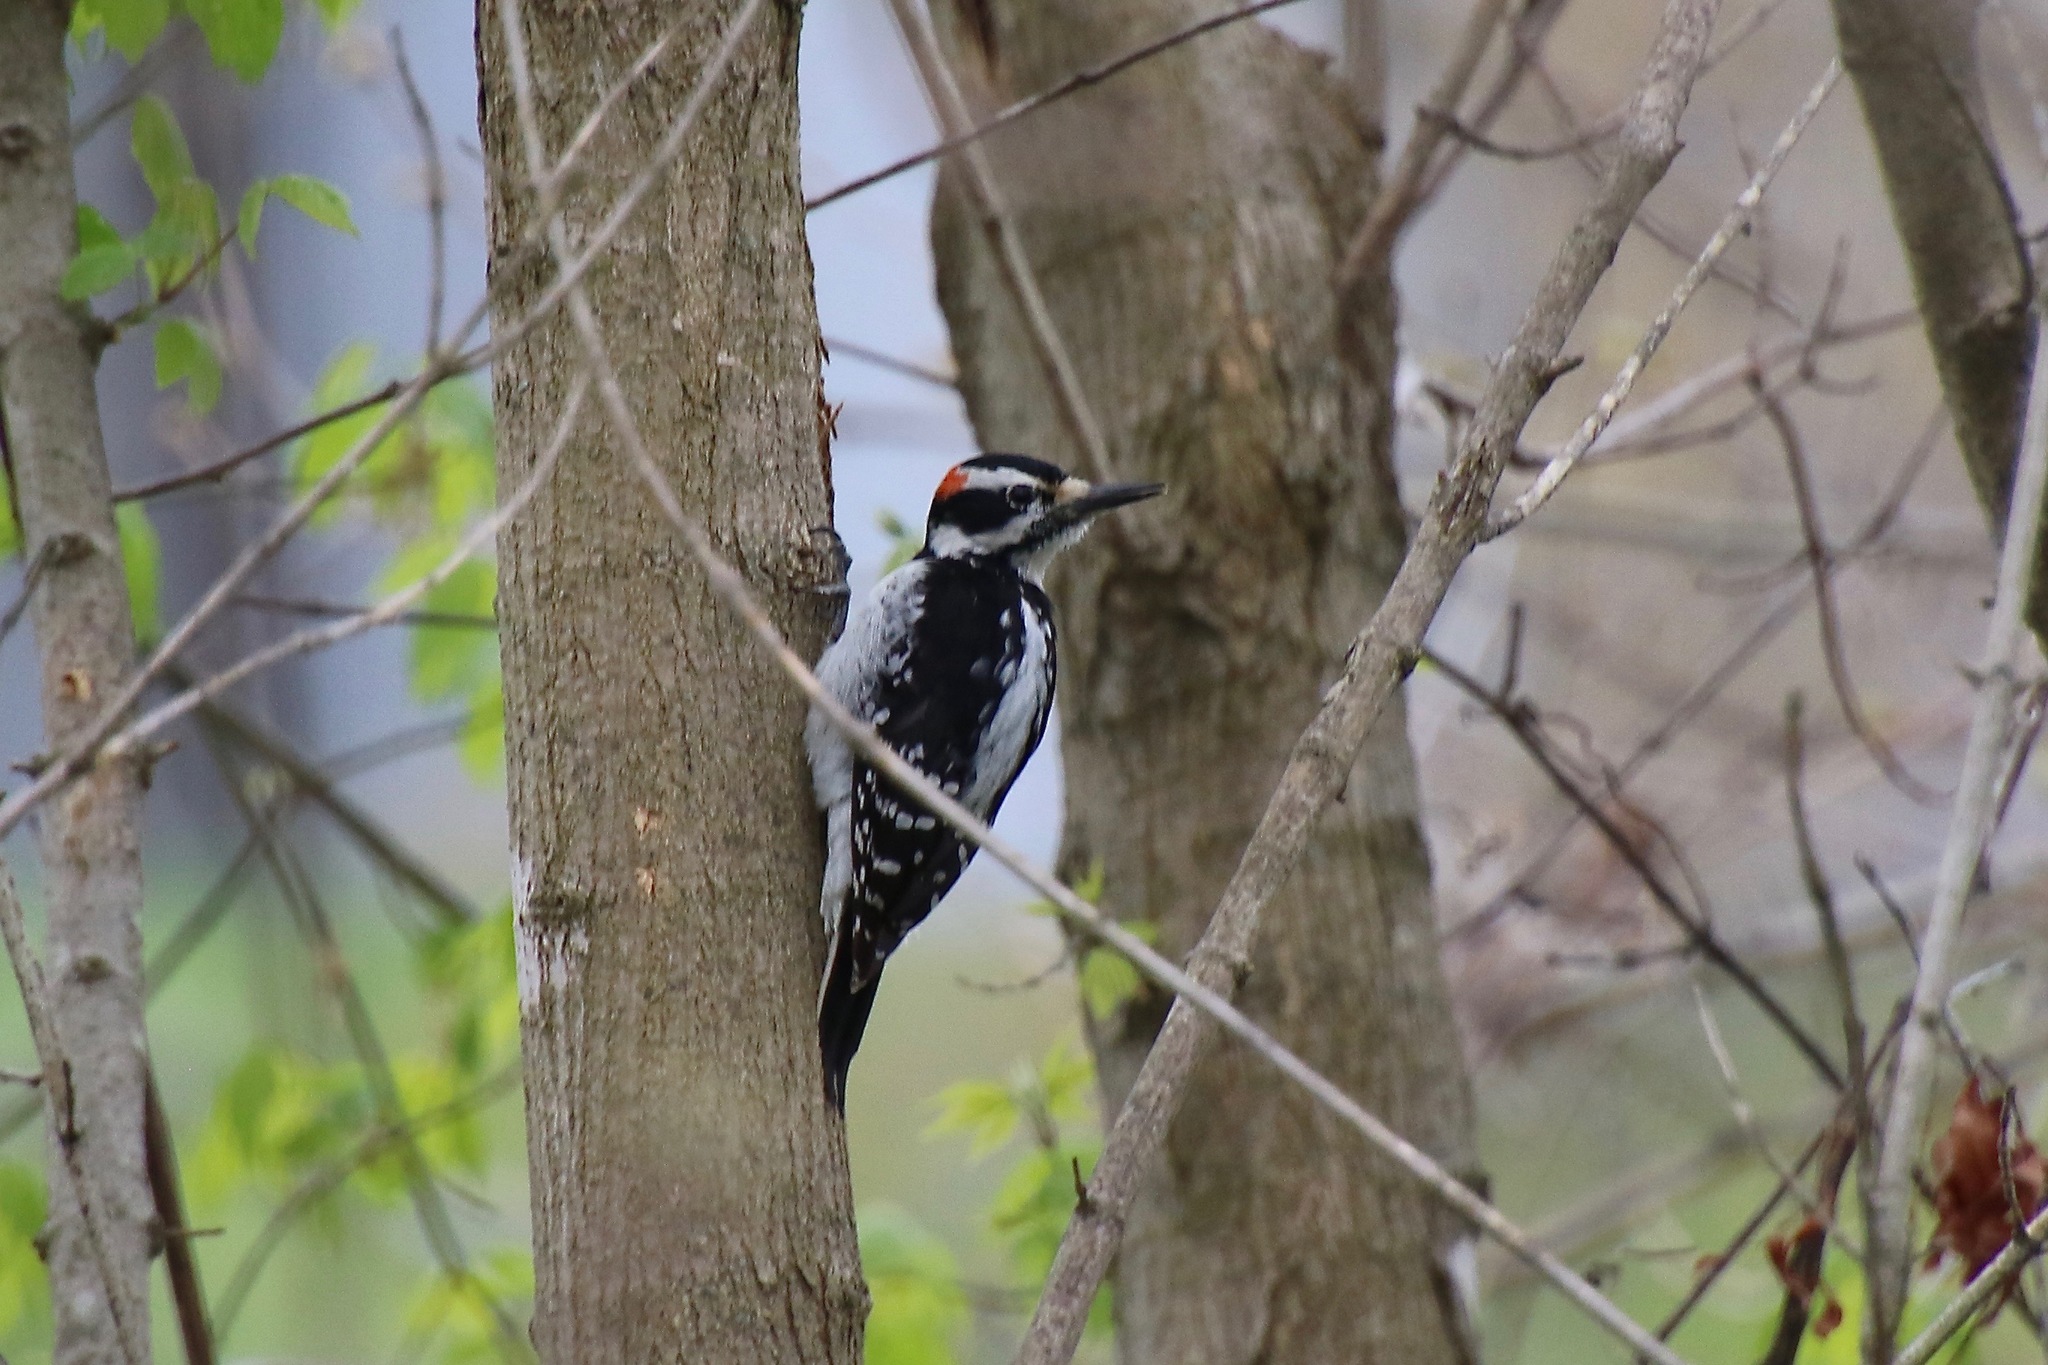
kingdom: Animalia
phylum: Chordata
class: Aves
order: Piciformes
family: Picidae
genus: Leuconotopicus
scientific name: Leuconotopicus villosus
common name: Hairy woodpecker
